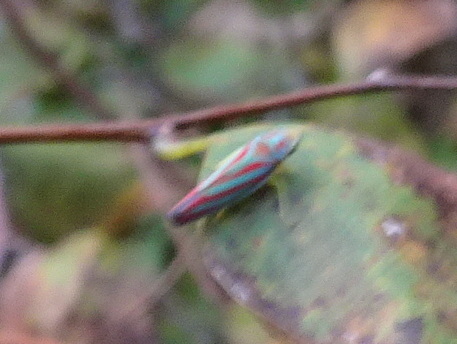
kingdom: Animalia
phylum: Arthropoda
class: Insecta
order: Hemiptera
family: Cicadellidae
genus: Graphocephala
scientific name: Graphocephala coccinea
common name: Candy-striped leafhopper
